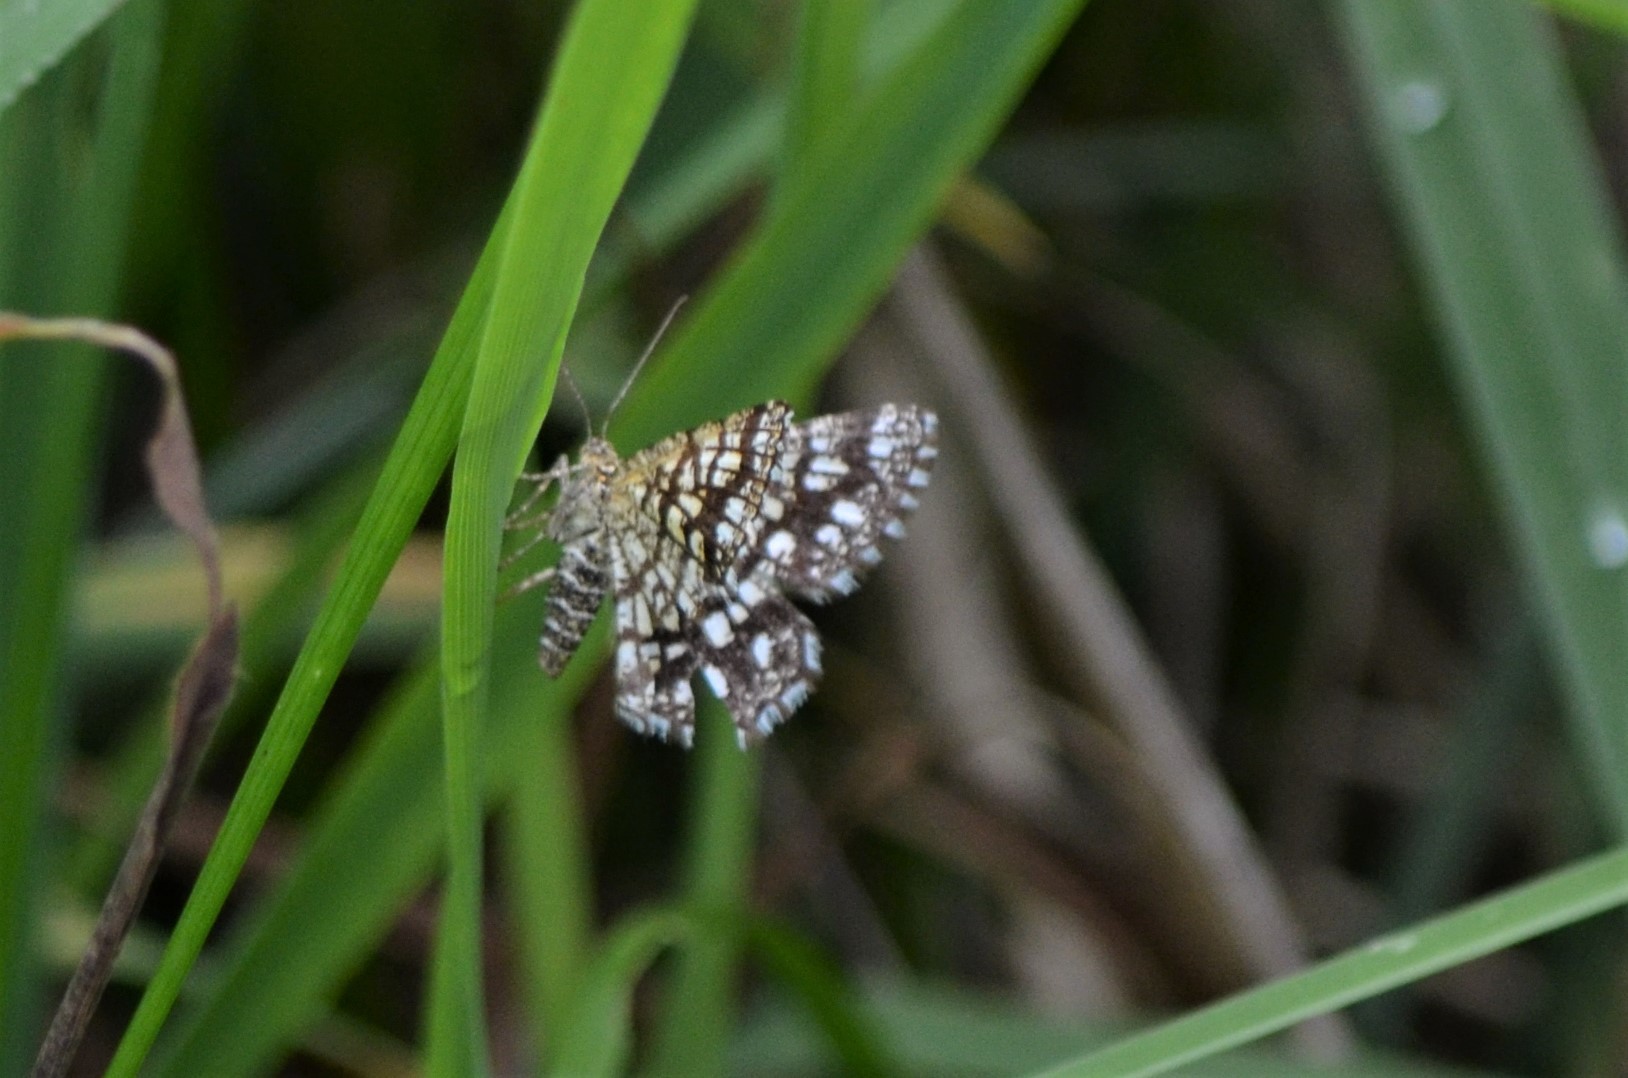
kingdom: Animalia
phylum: Arthropoda
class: Insecta
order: Lepidoptera
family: Geometridae
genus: Chiasmia
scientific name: Chiasmia clathrata
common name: Latticed heath
